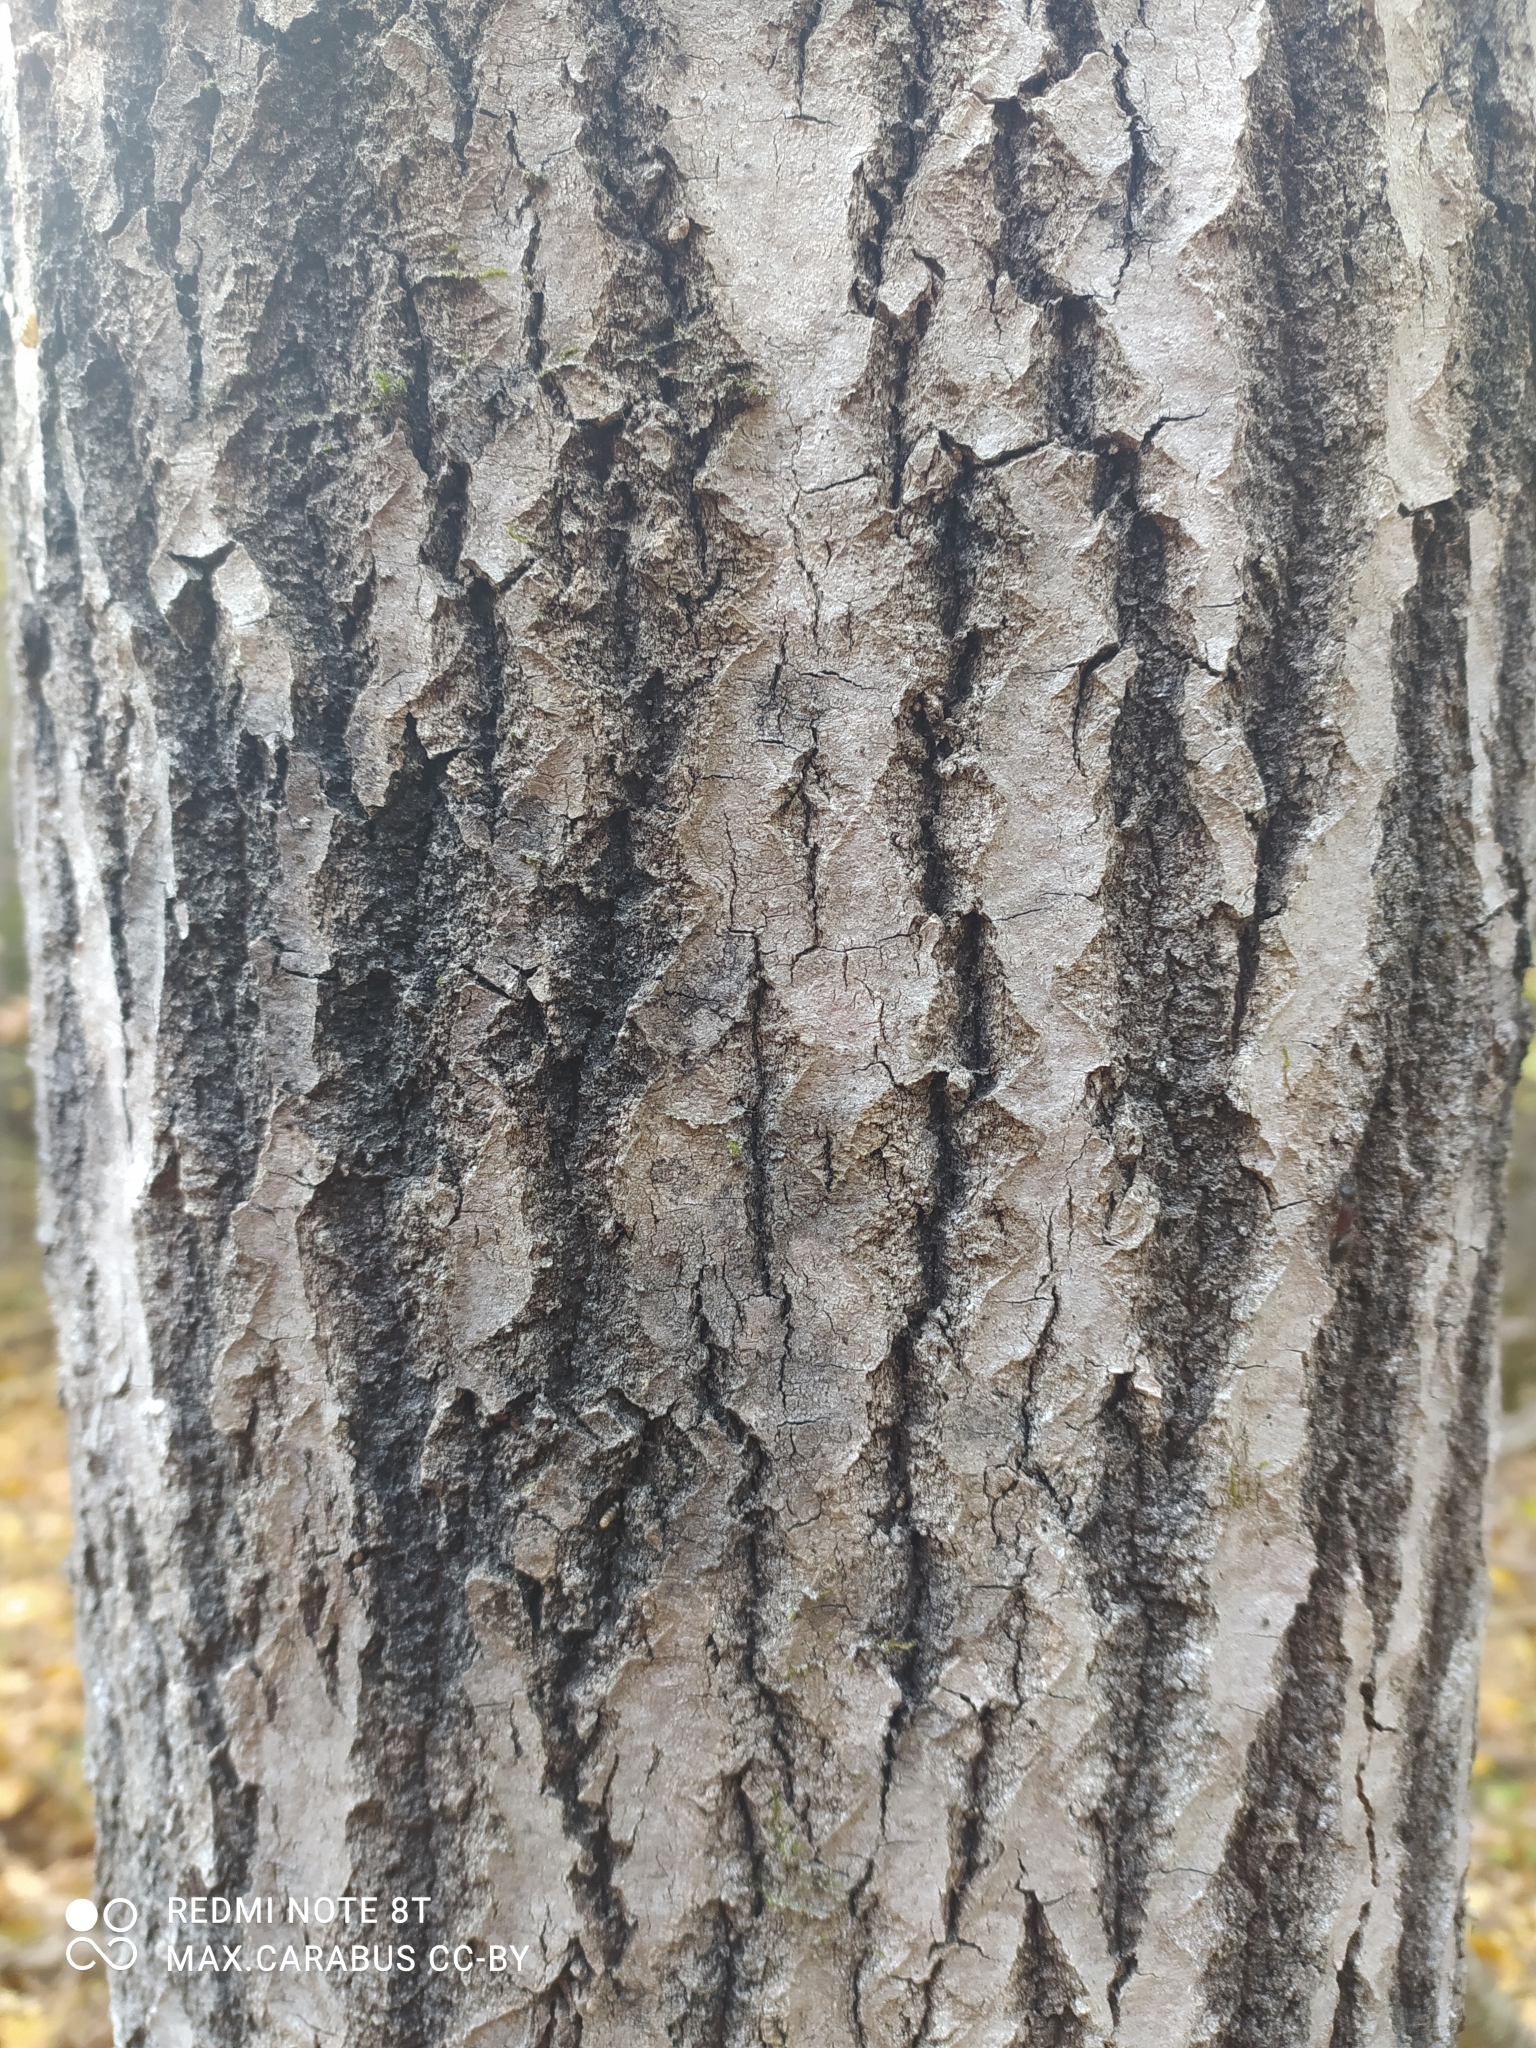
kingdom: Plantae
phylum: Tracheophyta
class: Magnoliopsida
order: Malpighiales
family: Salicaceae
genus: Populus
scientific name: Populus tremula
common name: European aspen
